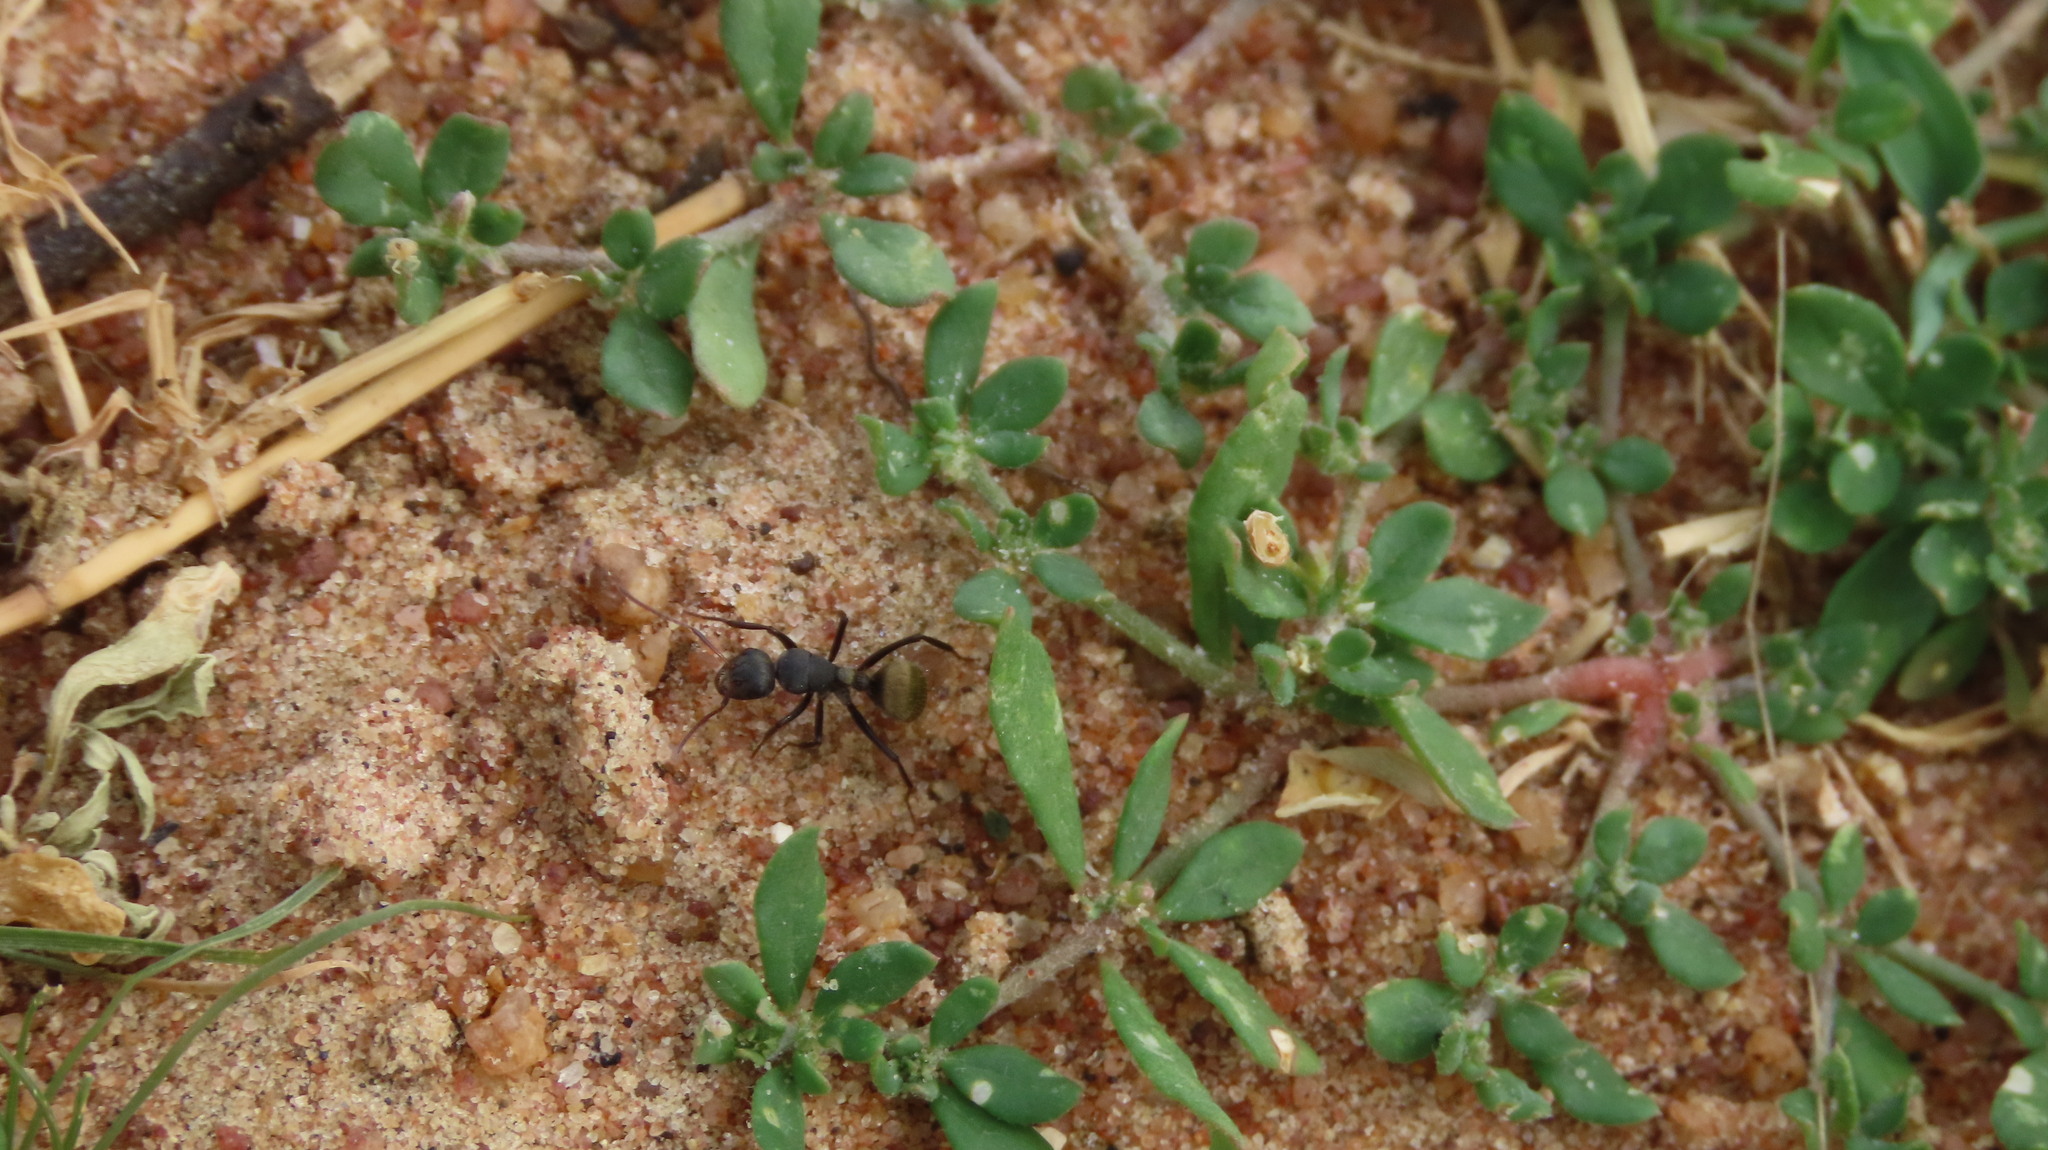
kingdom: Animalia
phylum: Arthropoda
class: Insecta
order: Hymenoptera
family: Formicidae
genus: Camponotus
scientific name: Camponotus sericeus
